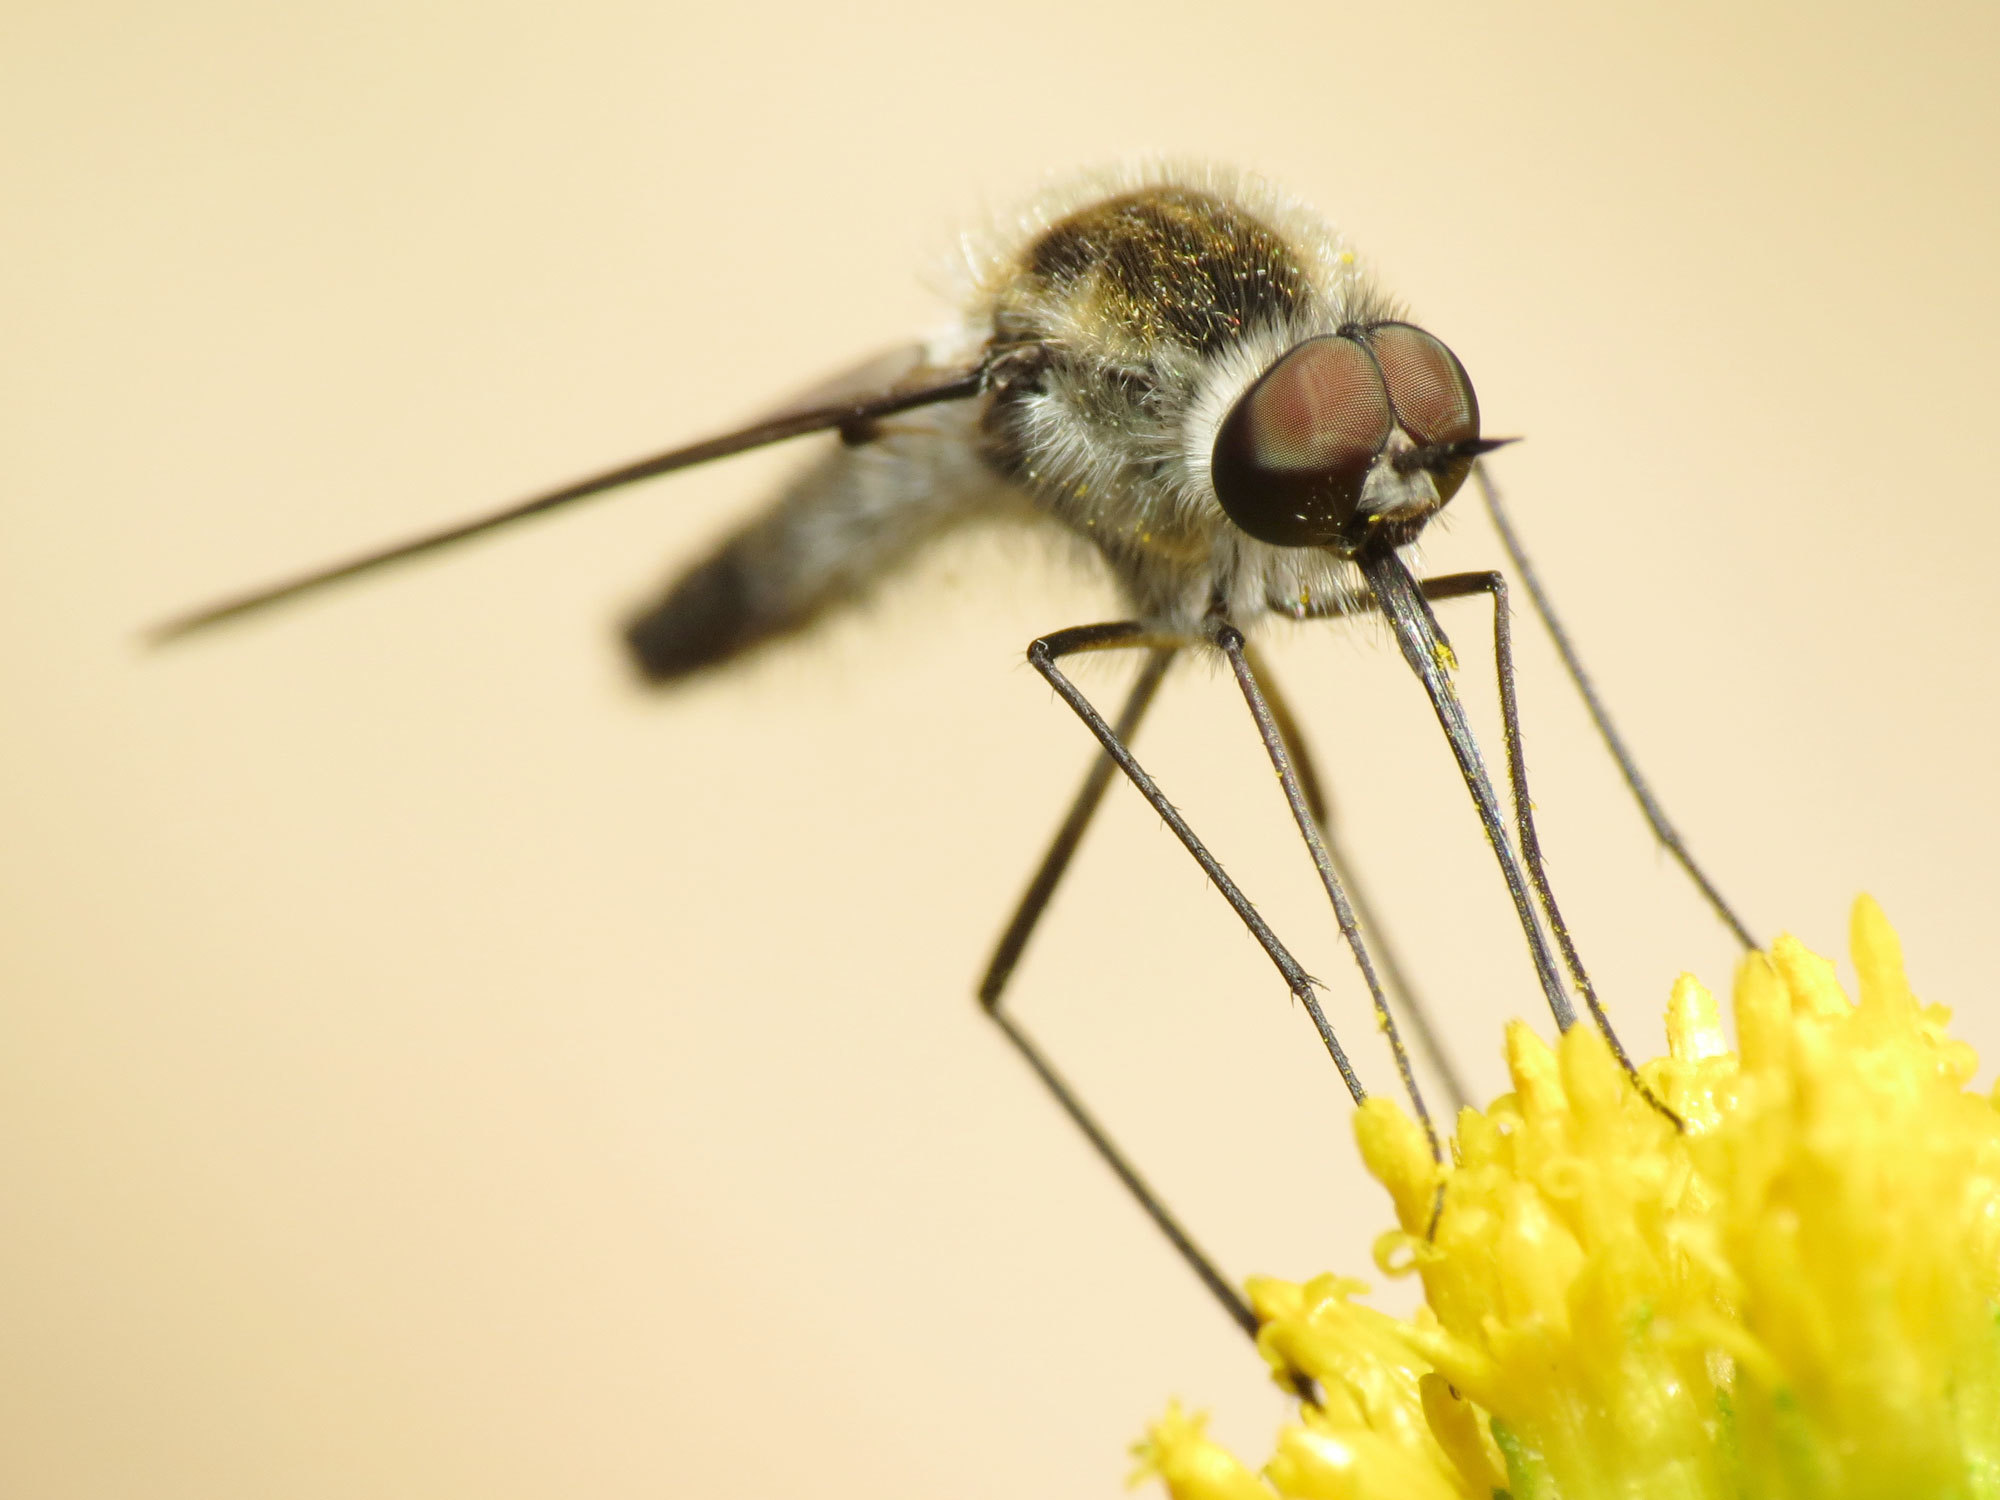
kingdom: Animalia
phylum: Arthropoda
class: Insecta
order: Diptera
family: Bombyliidae
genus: Thevenetimyia
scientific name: Thevenetimyia speciosa
